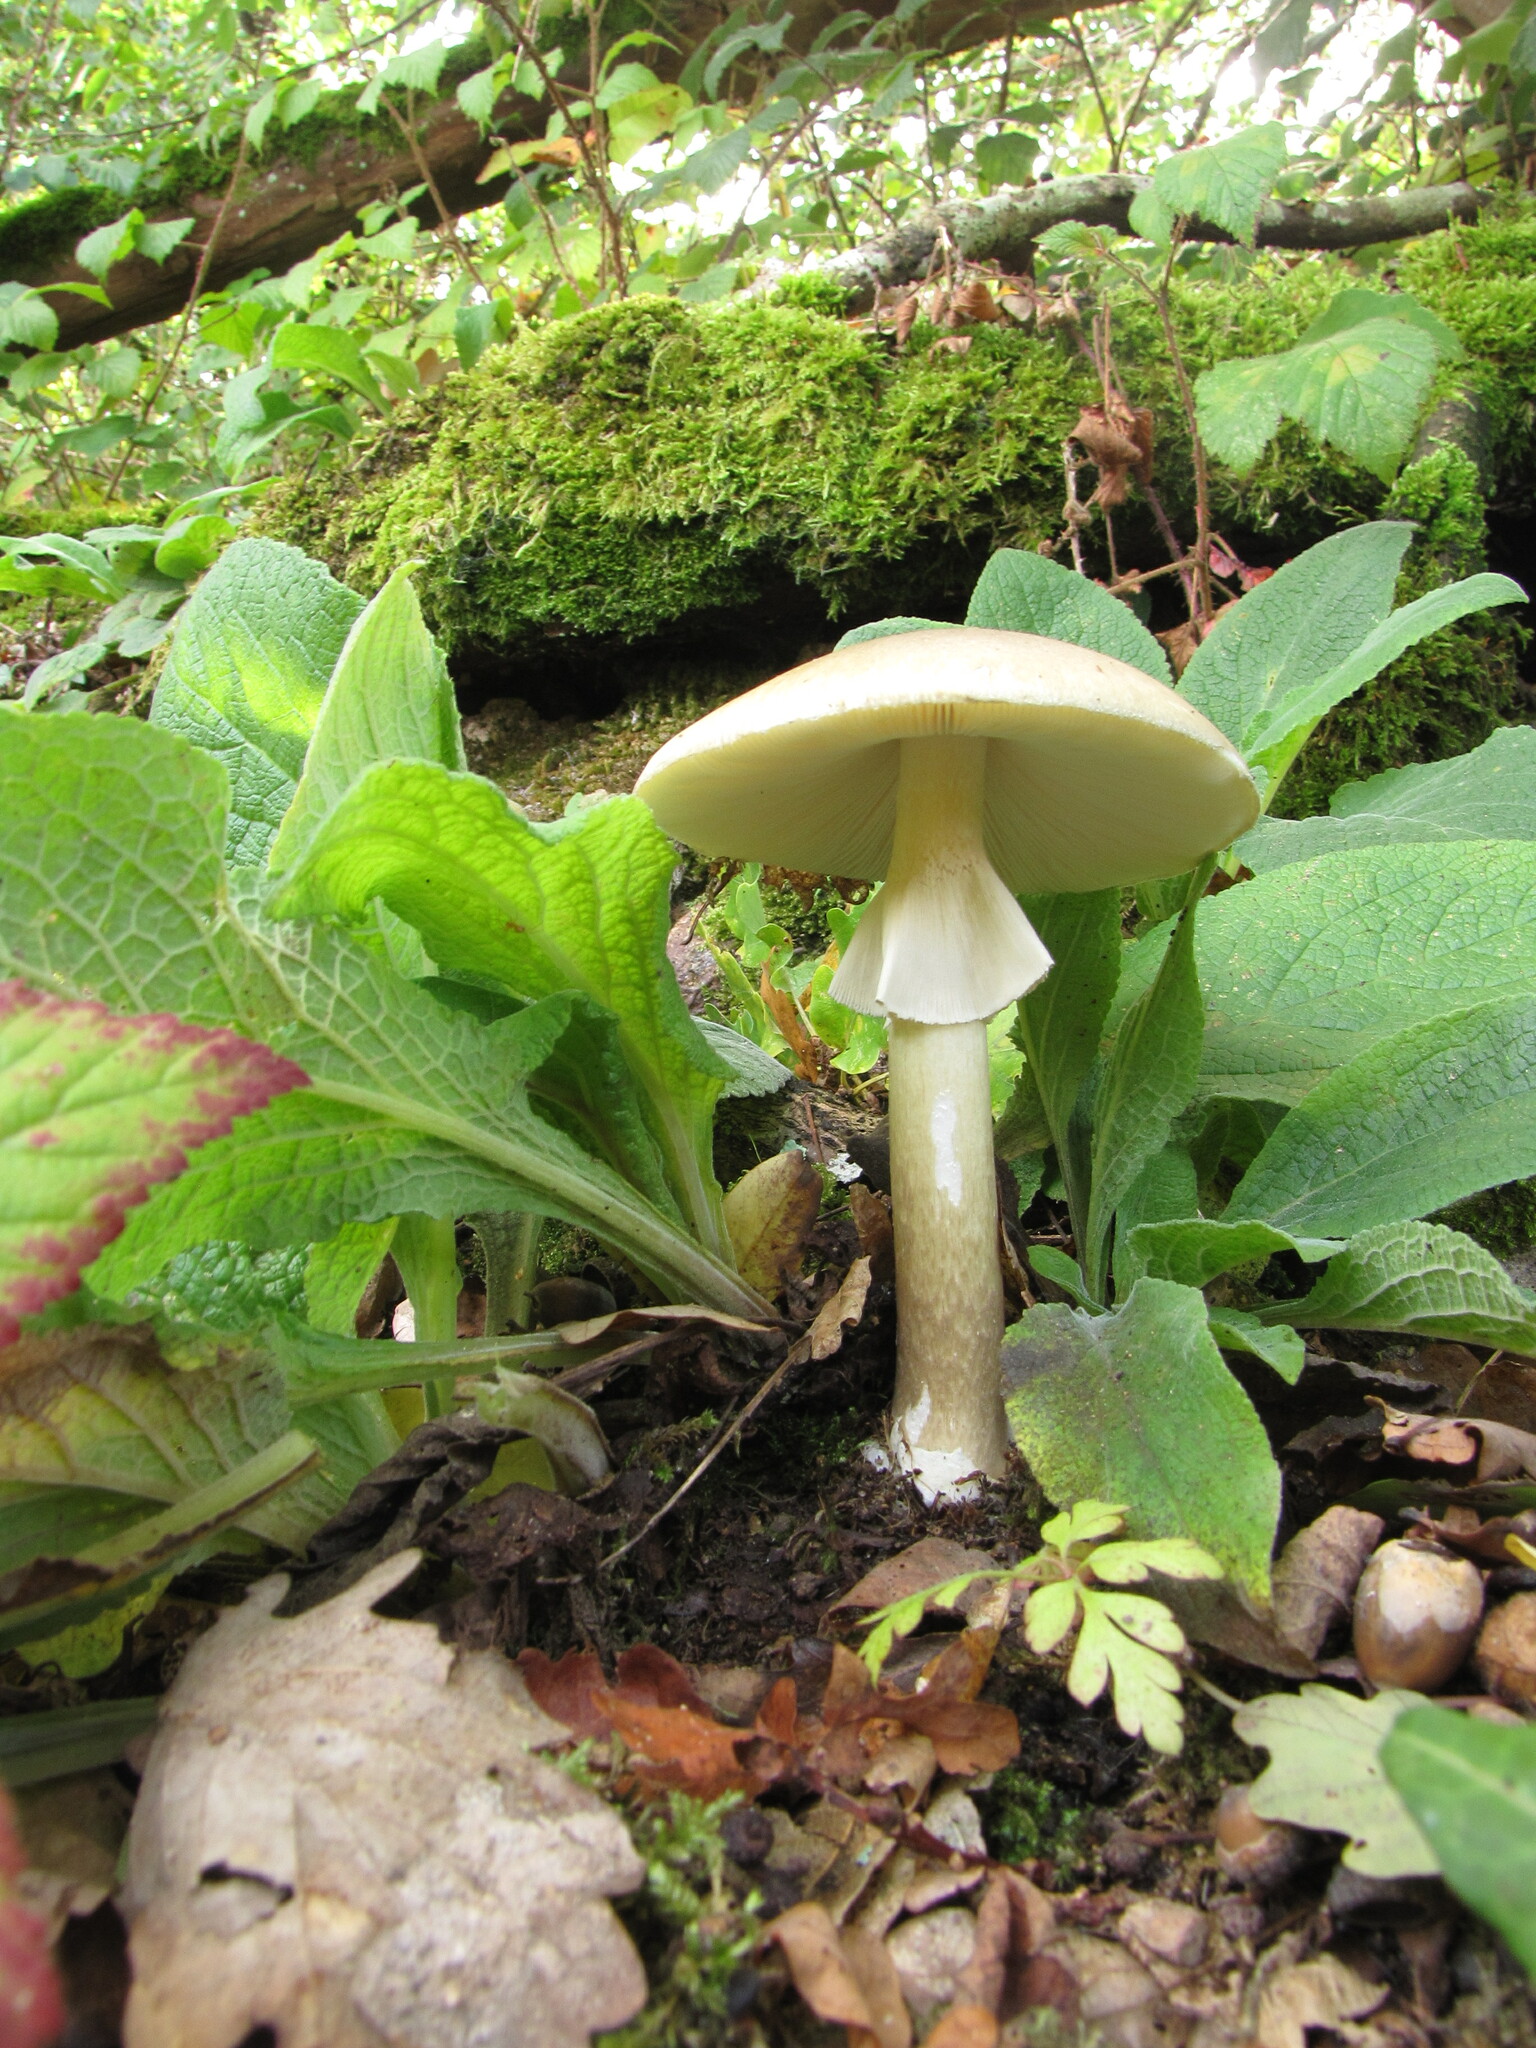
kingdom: Fungi
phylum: Basidiomycota
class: Agaricomycetes
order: Agaricales
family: Amanitaceae
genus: Amanita
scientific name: Amanita phalloides
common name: Death cap
